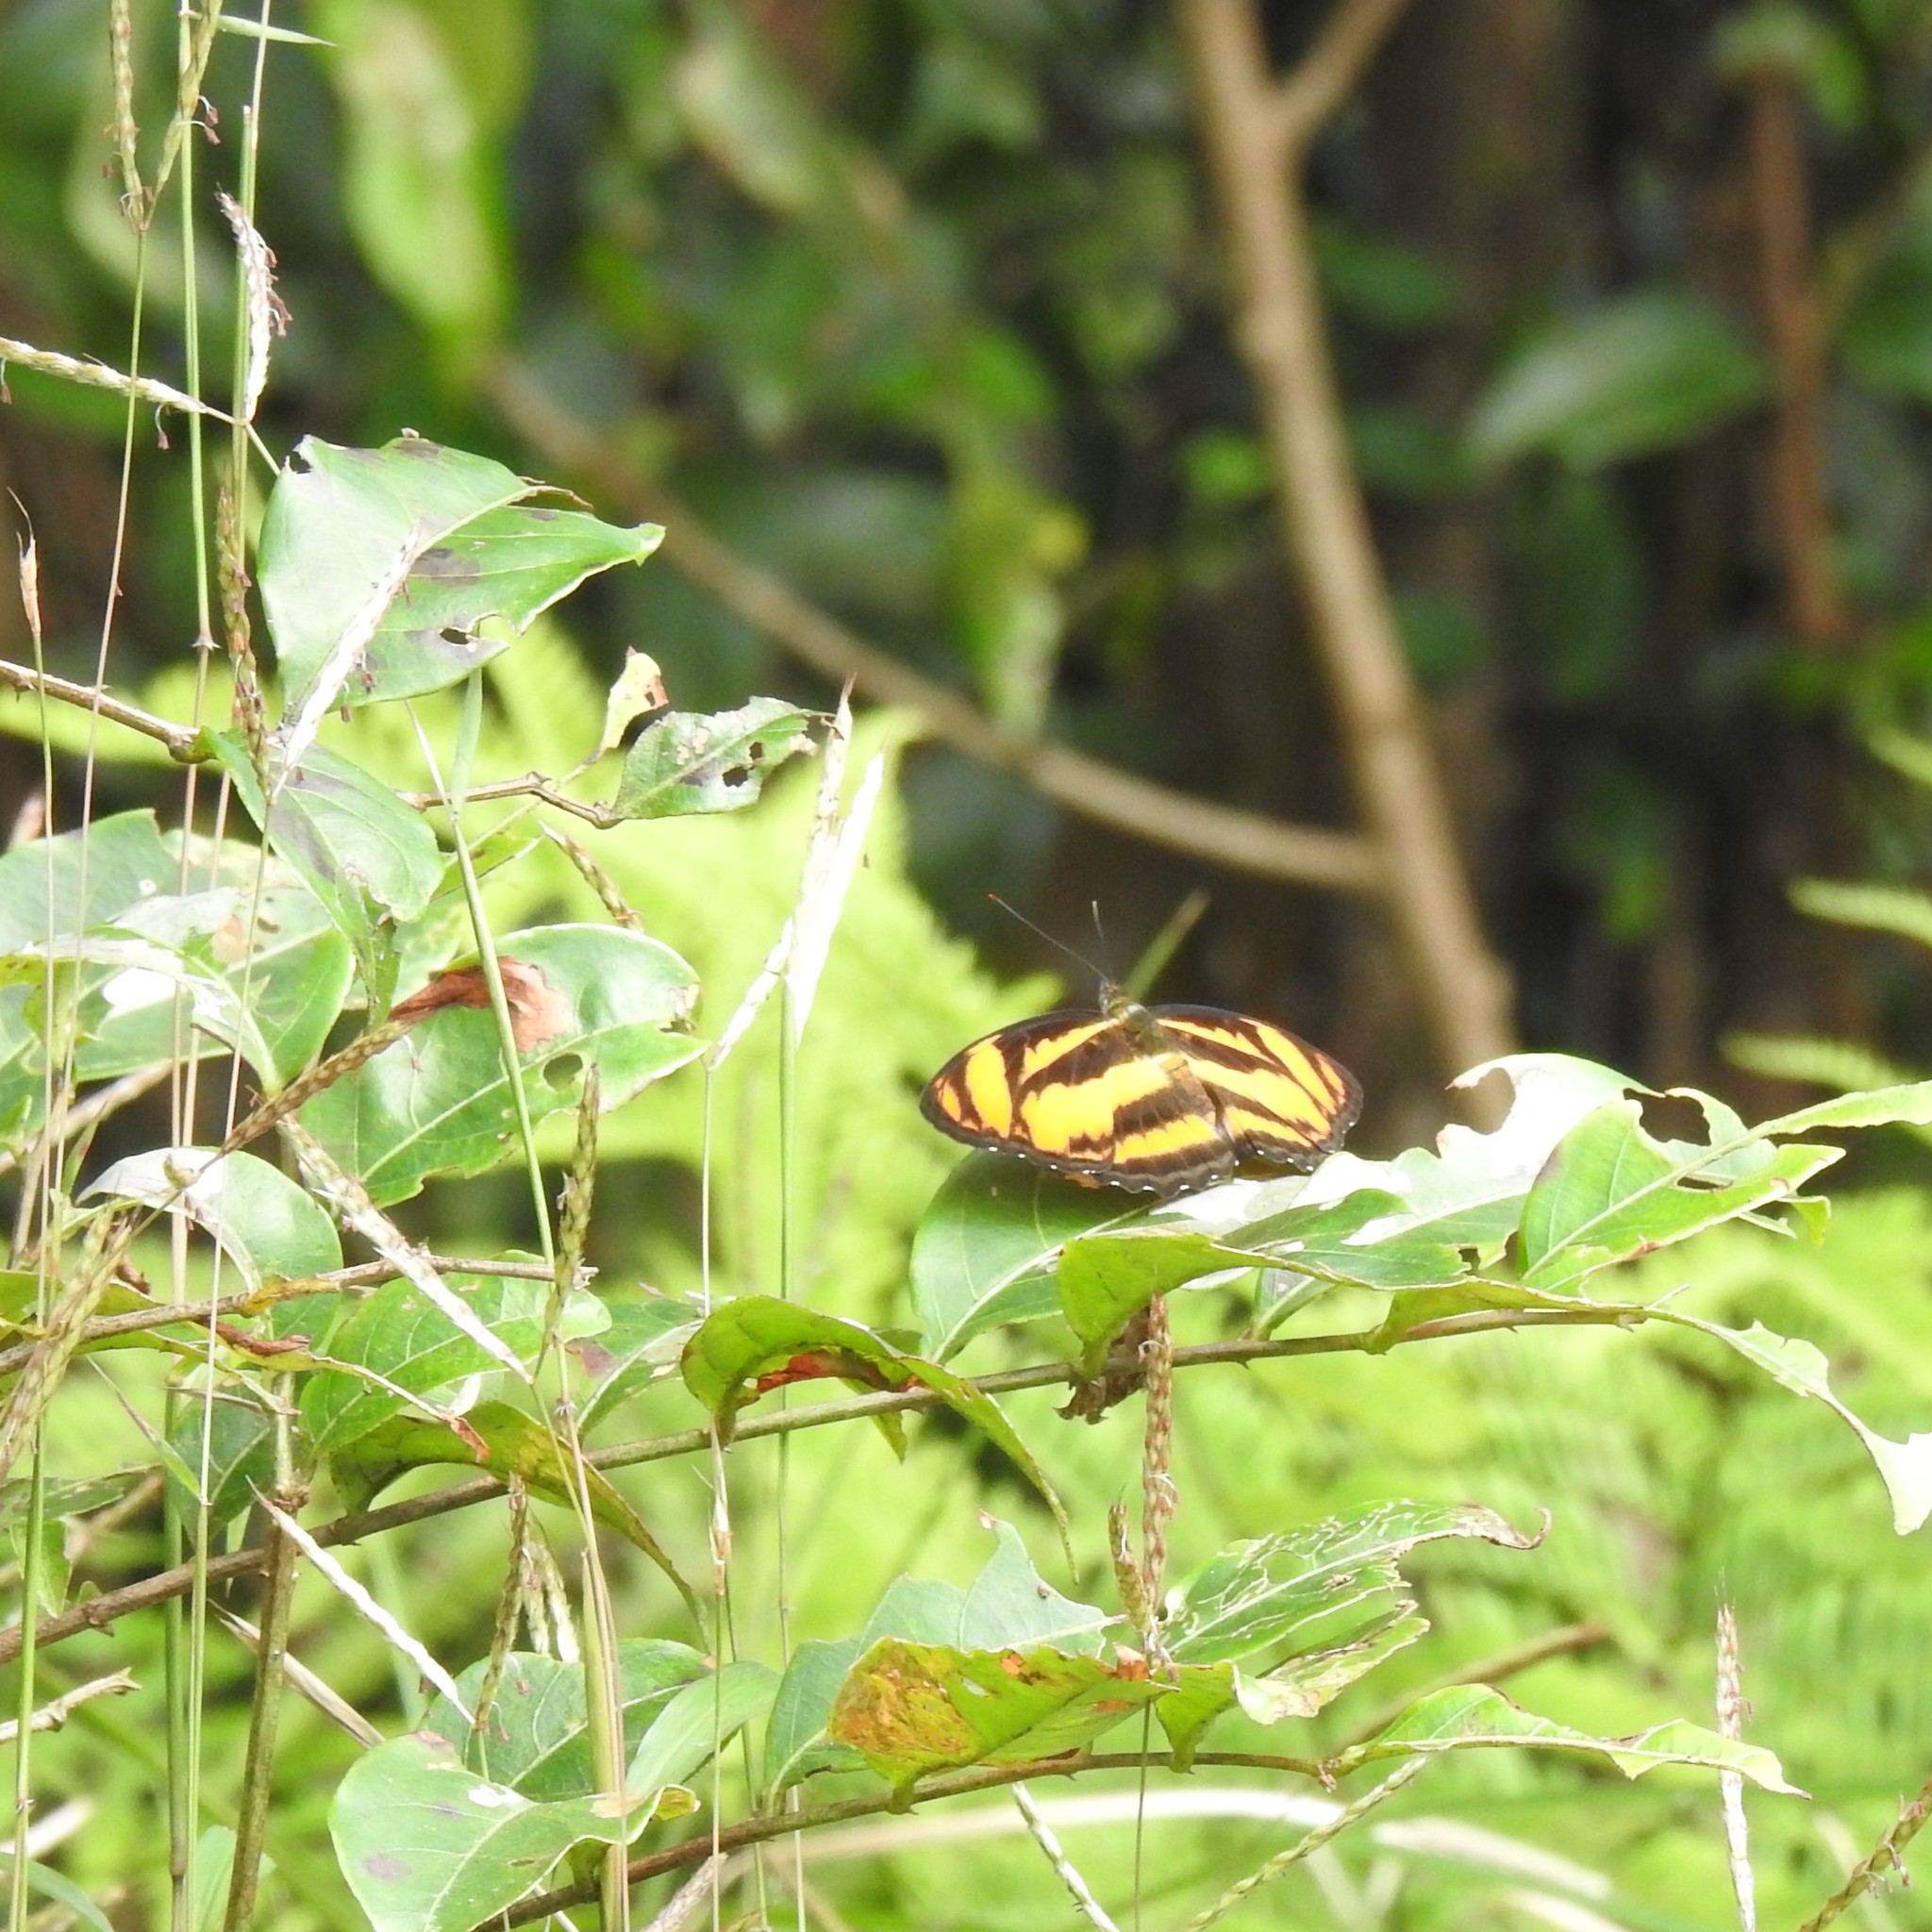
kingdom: Animalia
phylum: Arthropoda
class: Insecta
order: Lepidoptera
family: Nymphalidae
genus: Parathyma
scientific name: Parathyma nefte
